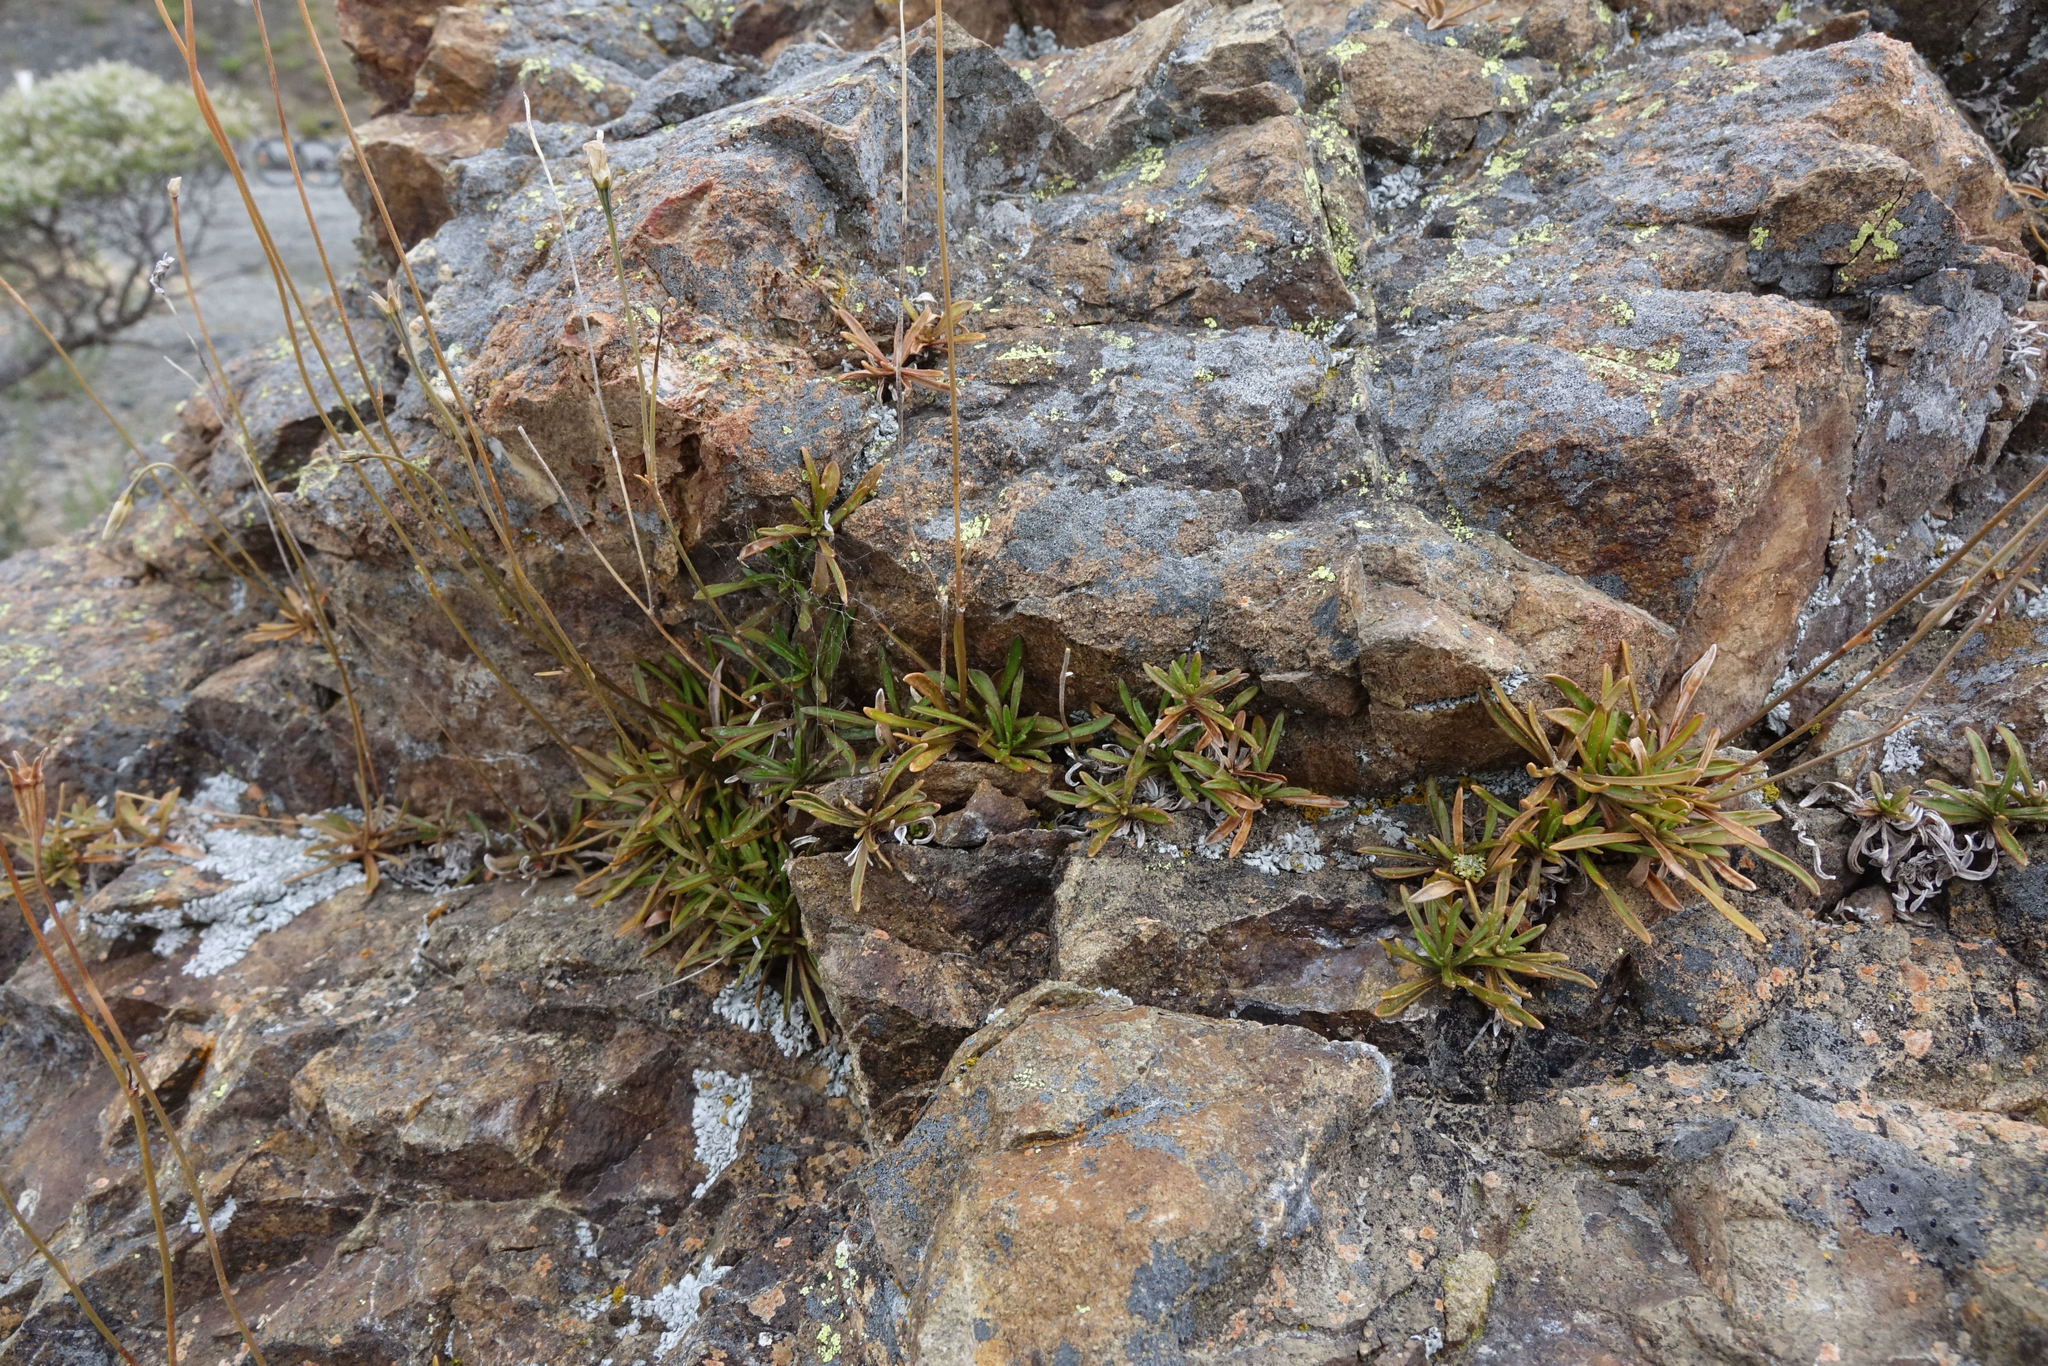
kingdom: Plantae
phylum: Tracheophyta
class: Magnoliopsida
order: Asterales
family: Campanulaceae
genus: Wahlenbergia
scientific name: Wahlenbergia albomarginata
